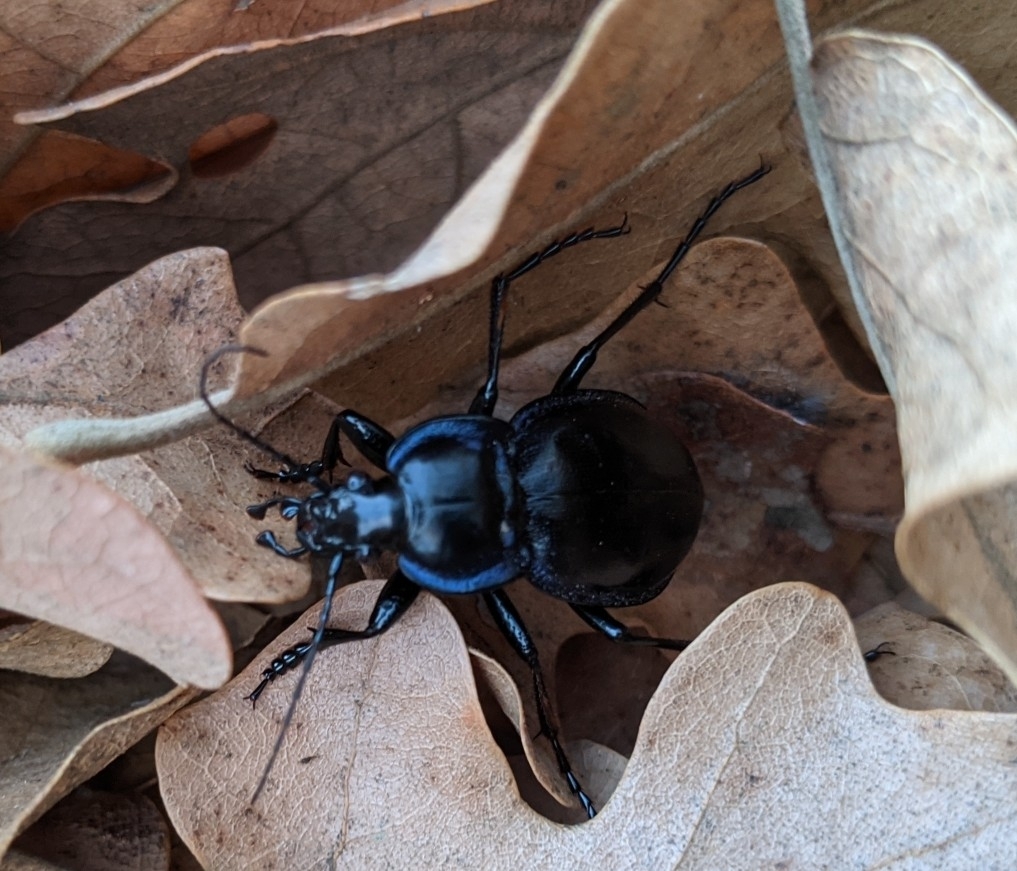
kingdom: Animalia
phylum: Arthropoda
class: Insecta
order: Coleoptera
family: Carabidae
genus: Carabus
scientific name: Carabus finitimus
